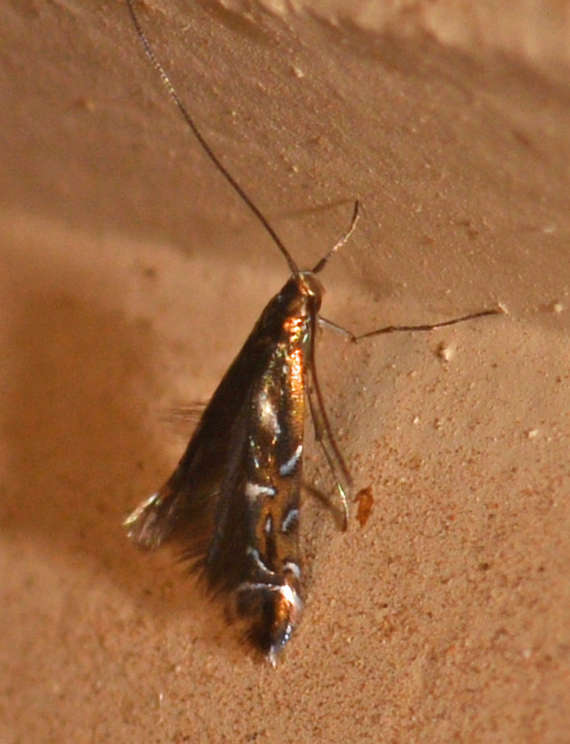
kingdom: Animalia
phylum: Arthropoda
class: Insecta
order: Lepidoptera
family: Gracillariidae
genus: Polysoma
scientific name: Polysoma eumetalla
